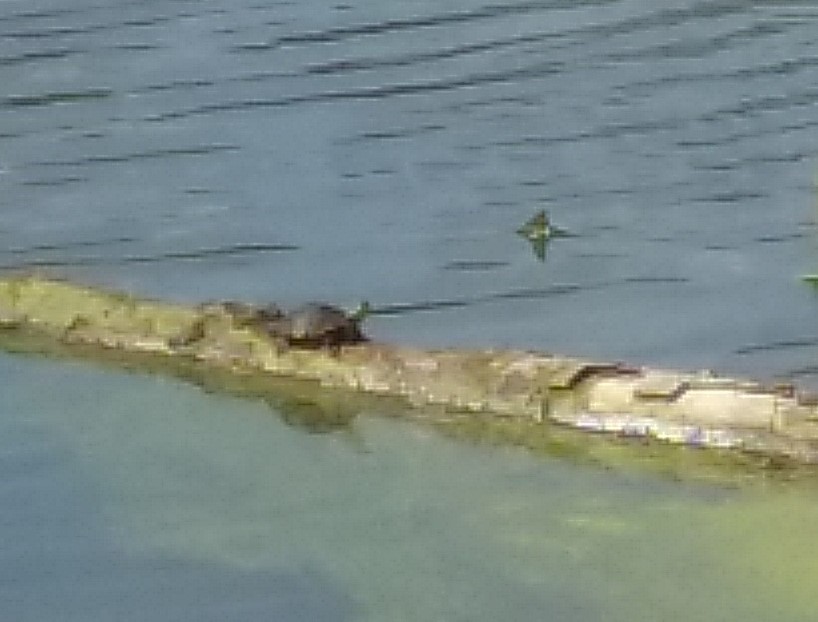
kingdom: Animalia
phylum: Chordata
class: Testudines
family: Emydidae
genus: Chrysemys
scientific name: Chrysemys picta
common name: Painted turtle
